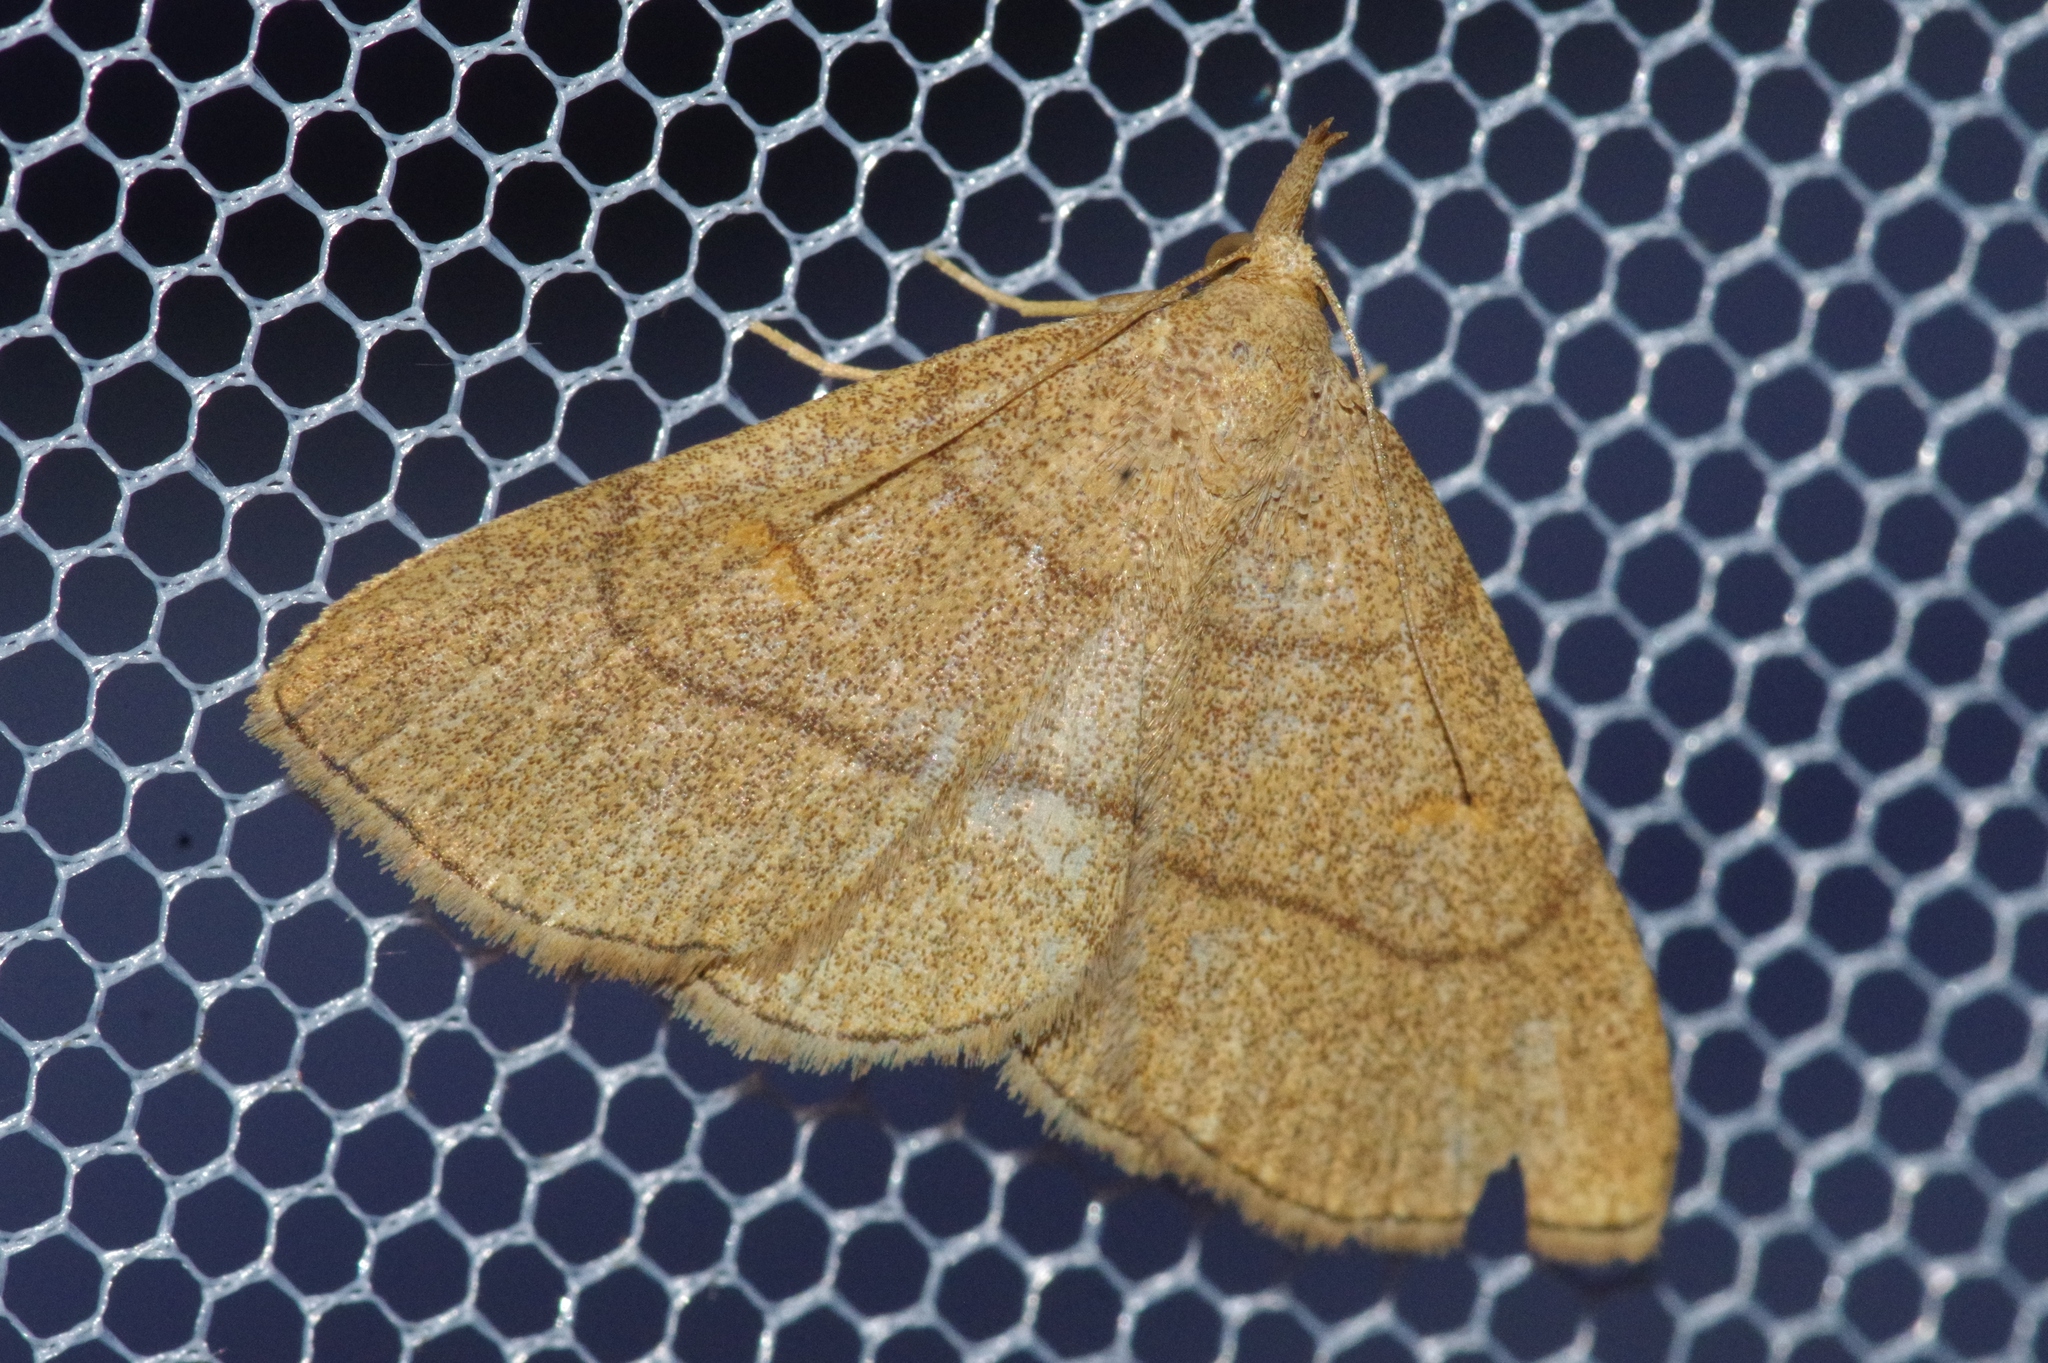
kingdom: Animalia
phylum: Arthropoda
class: Insecta
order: Lepidoptera
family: Erebidae
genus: Paracolax
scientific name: Paracolax tristalis
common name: Clay fan-foot
